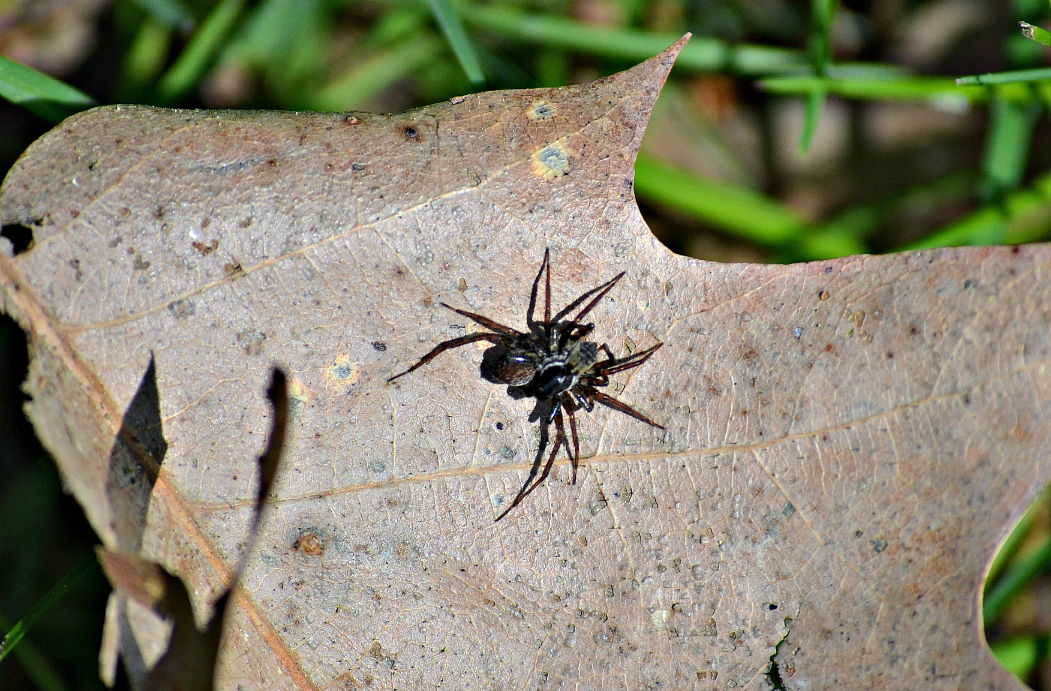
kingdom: Animalia
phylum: Arthropoda
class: Arachnida
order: Araneae
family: Lycosidae
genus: Pardosa
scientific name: Pardosa moesta
